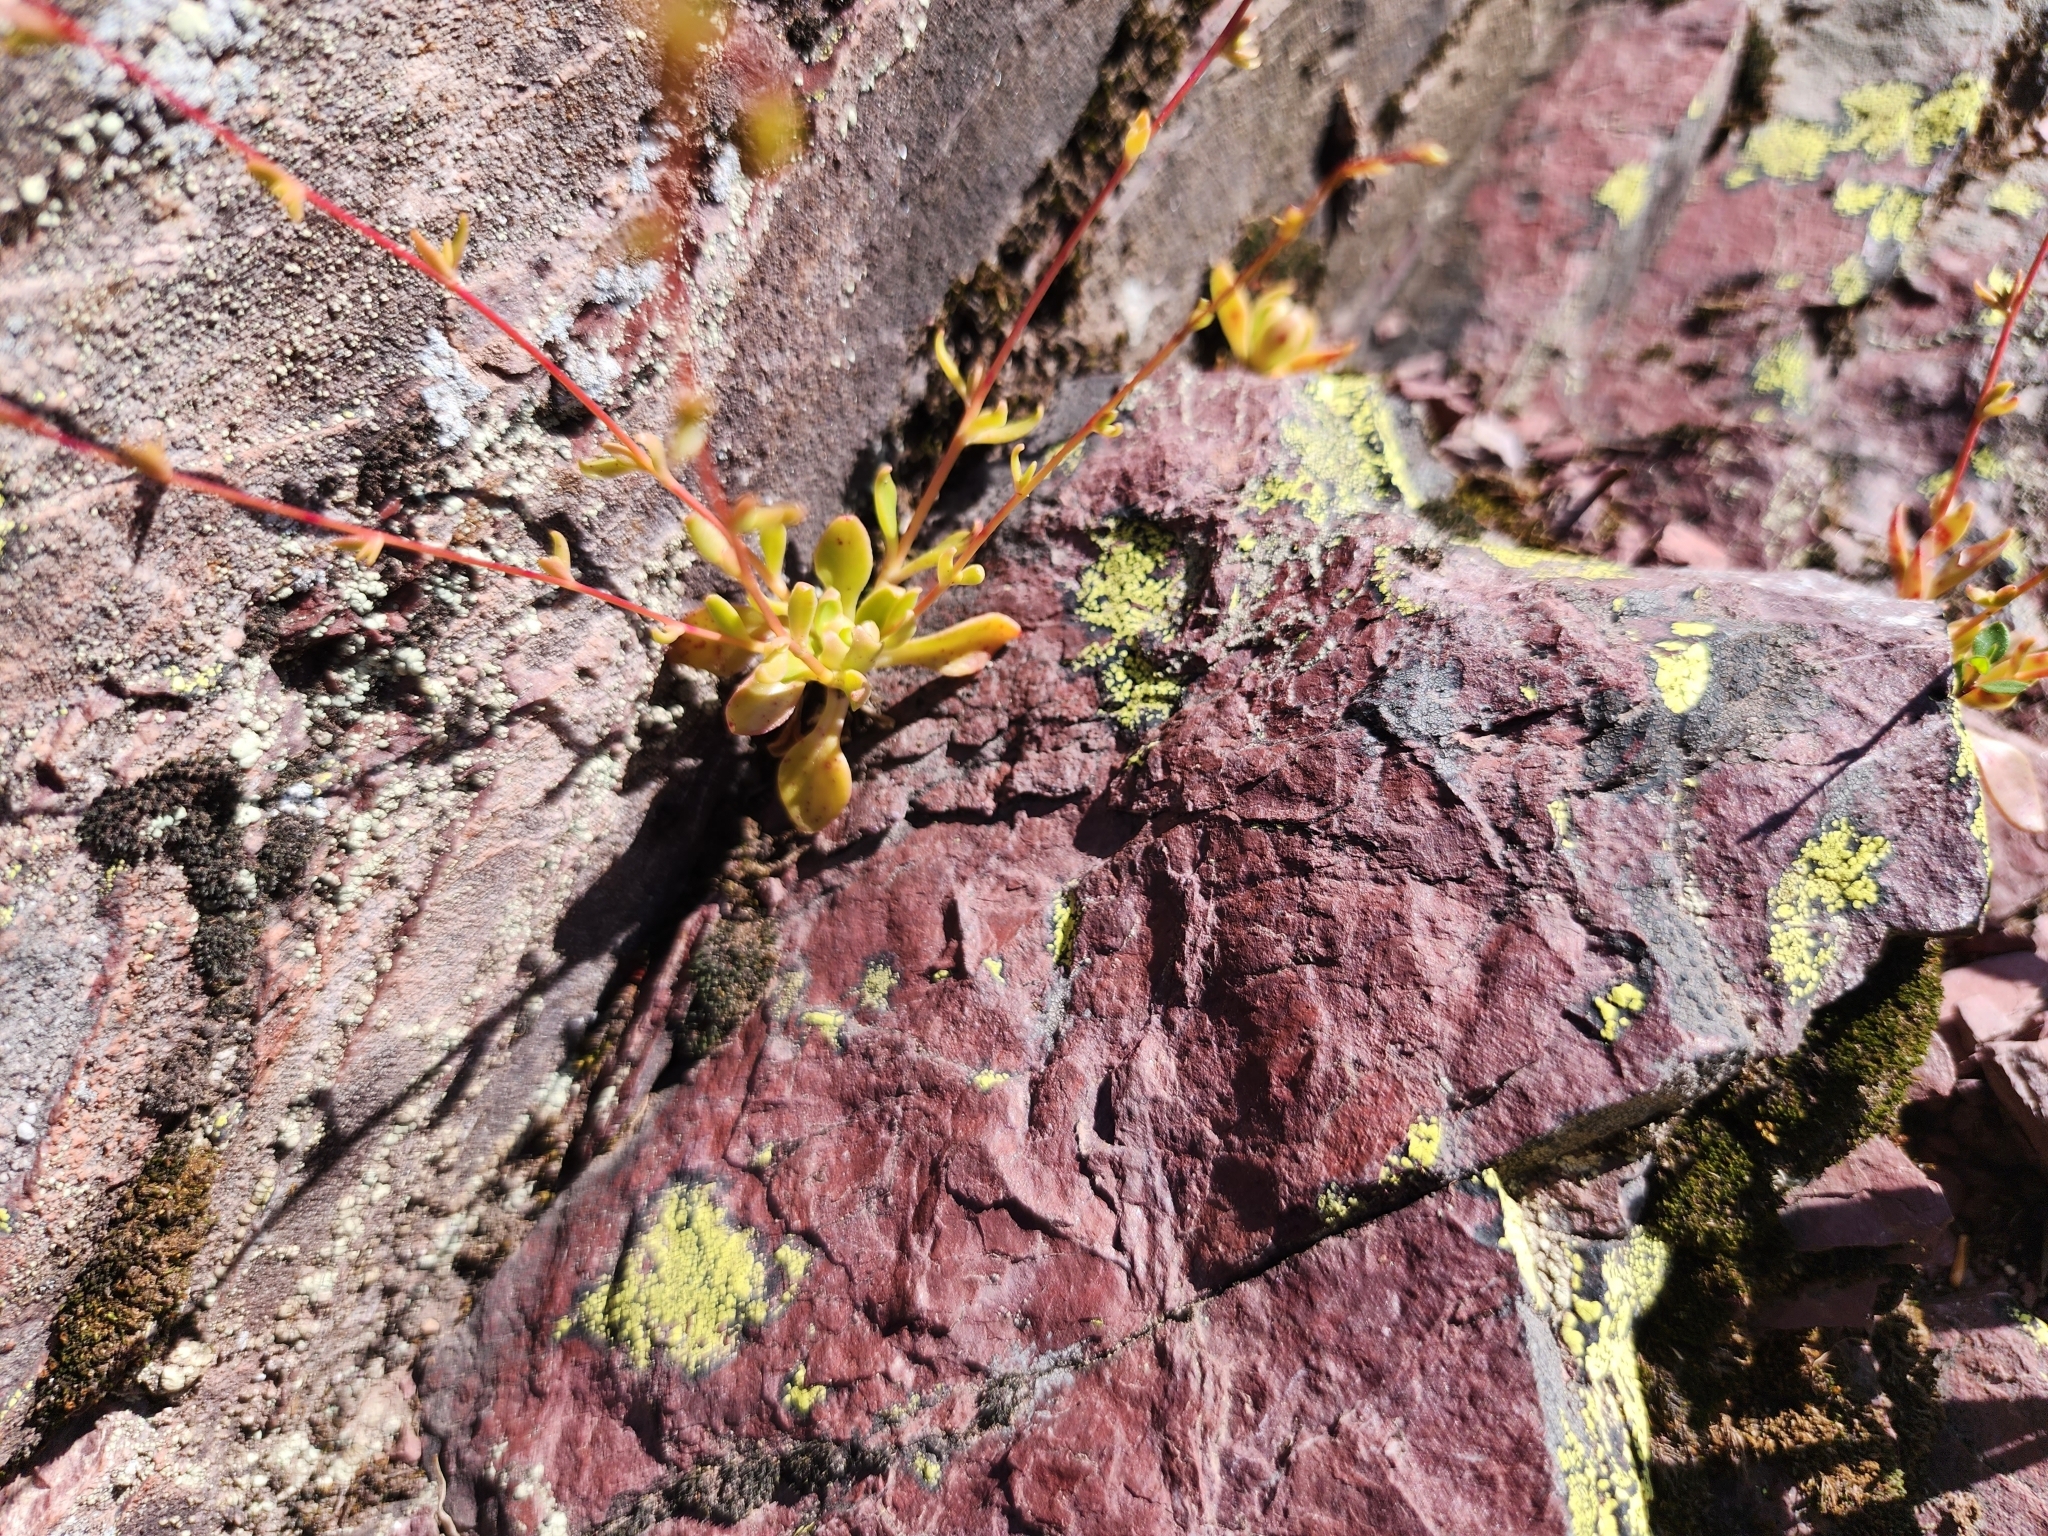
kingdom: Plantae
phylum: Tracheophyta
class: Magnoliopsida
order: Caryophyllales
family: Montiaceae
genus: Montia
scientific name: Montia parvifolia
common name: Small-leaved blinks
